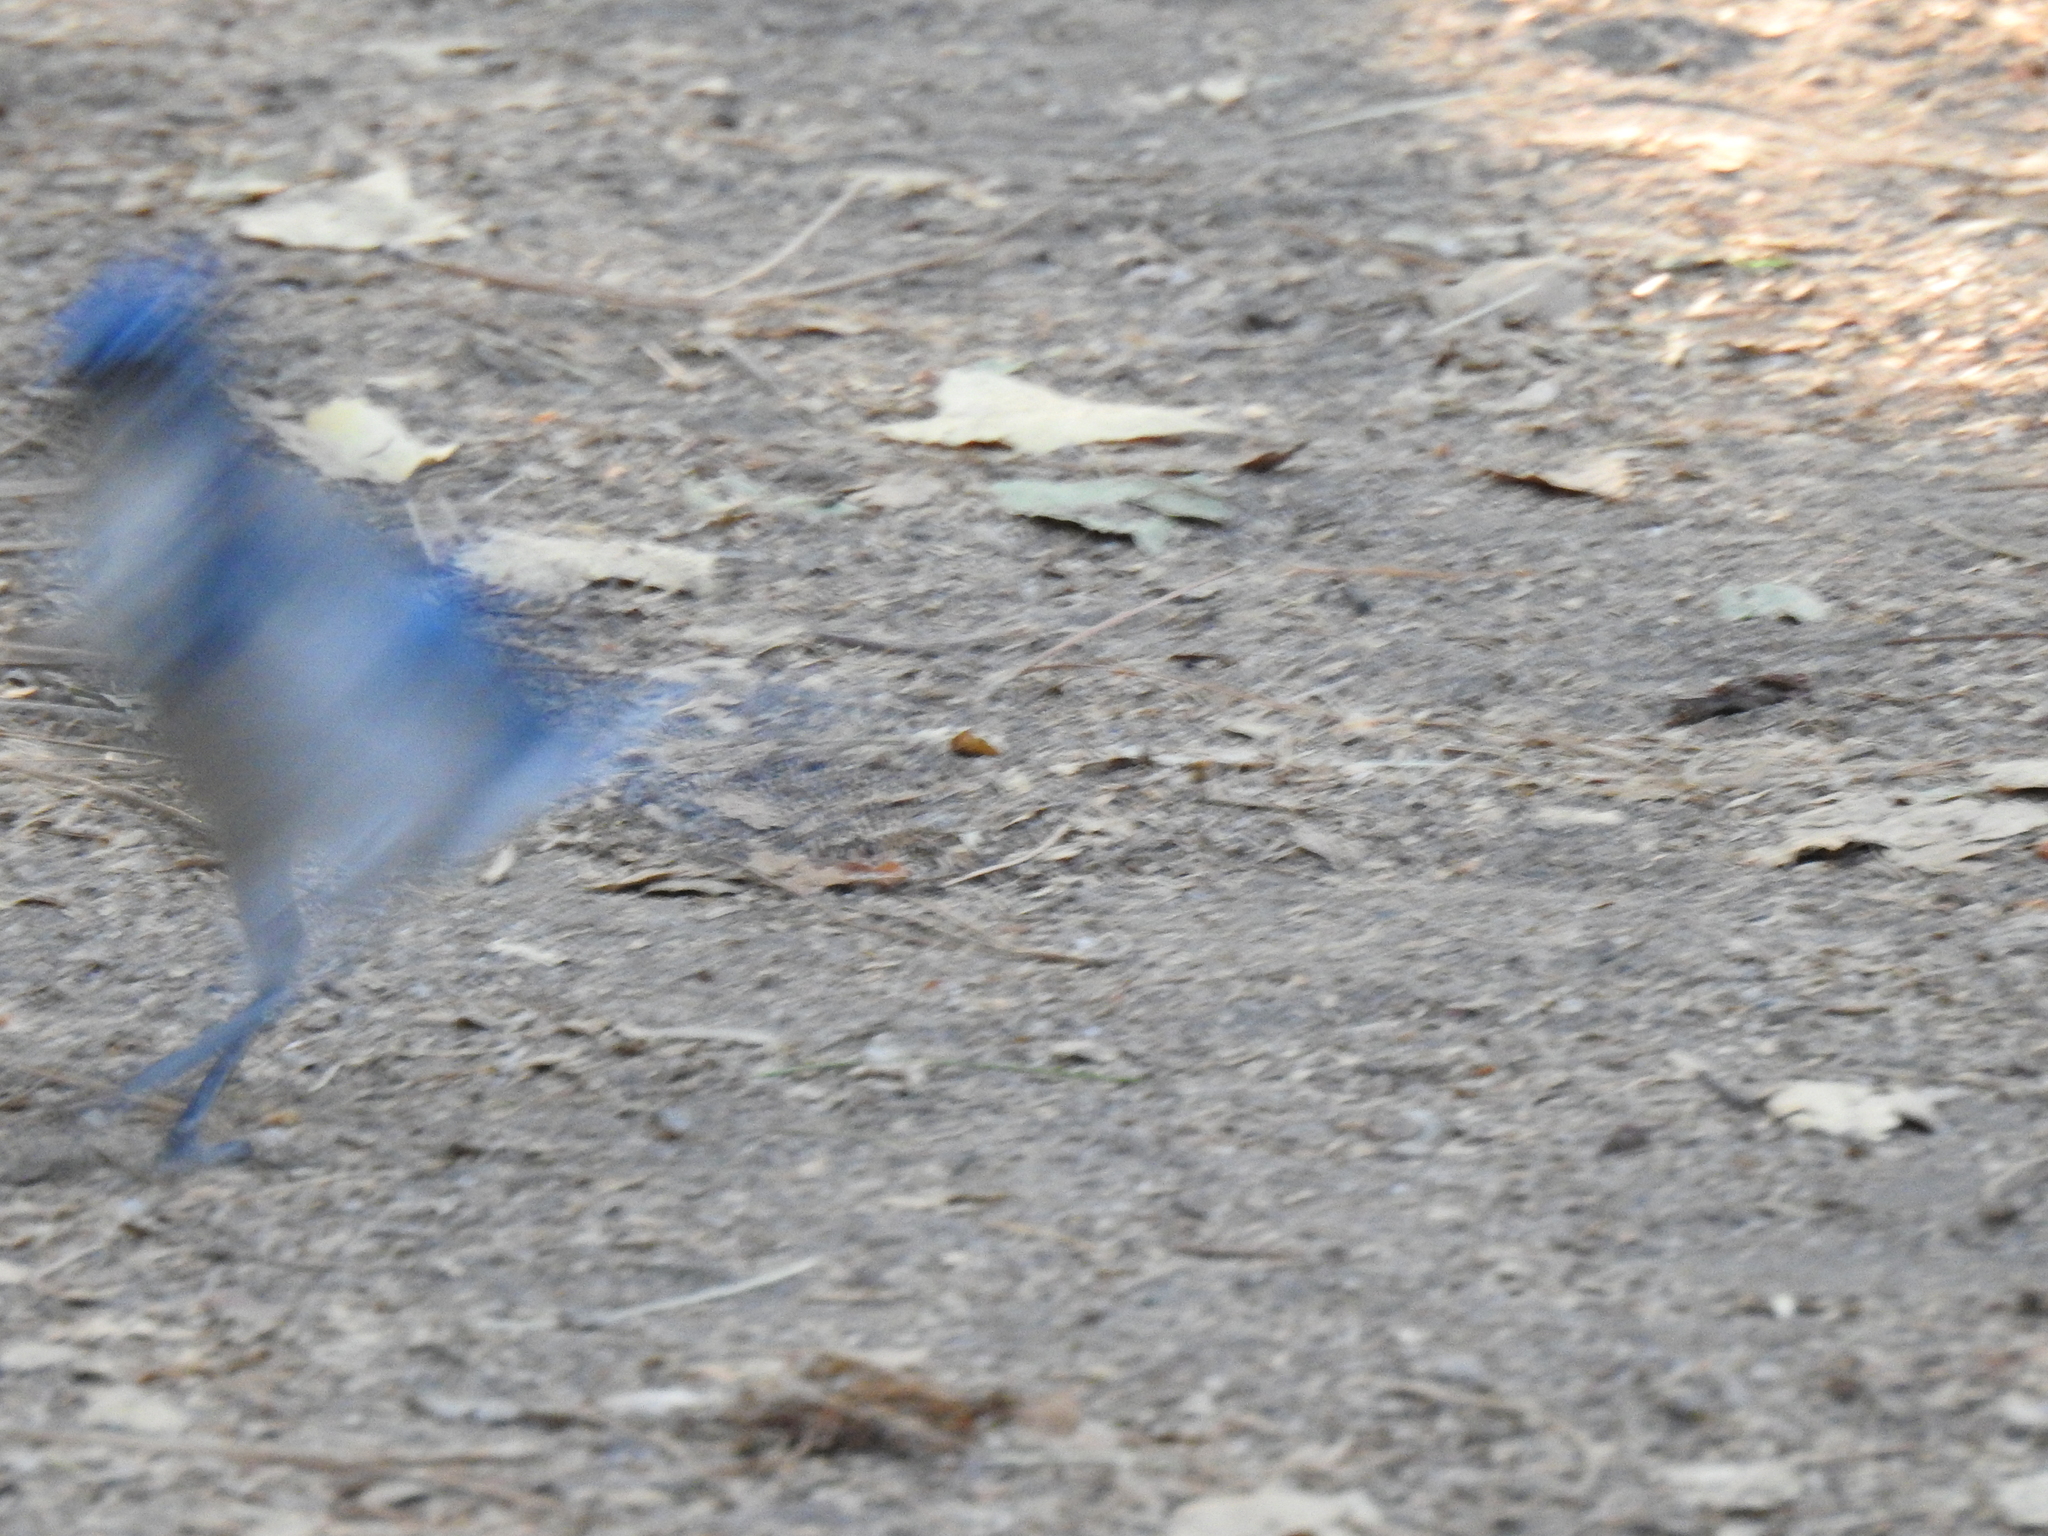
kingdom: Animalia
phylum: Chordata
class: Aves
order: Passeriformes
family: Corvidae
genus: Aphelocoma
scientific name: Aphelocoma californica
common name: California scrub-jay
